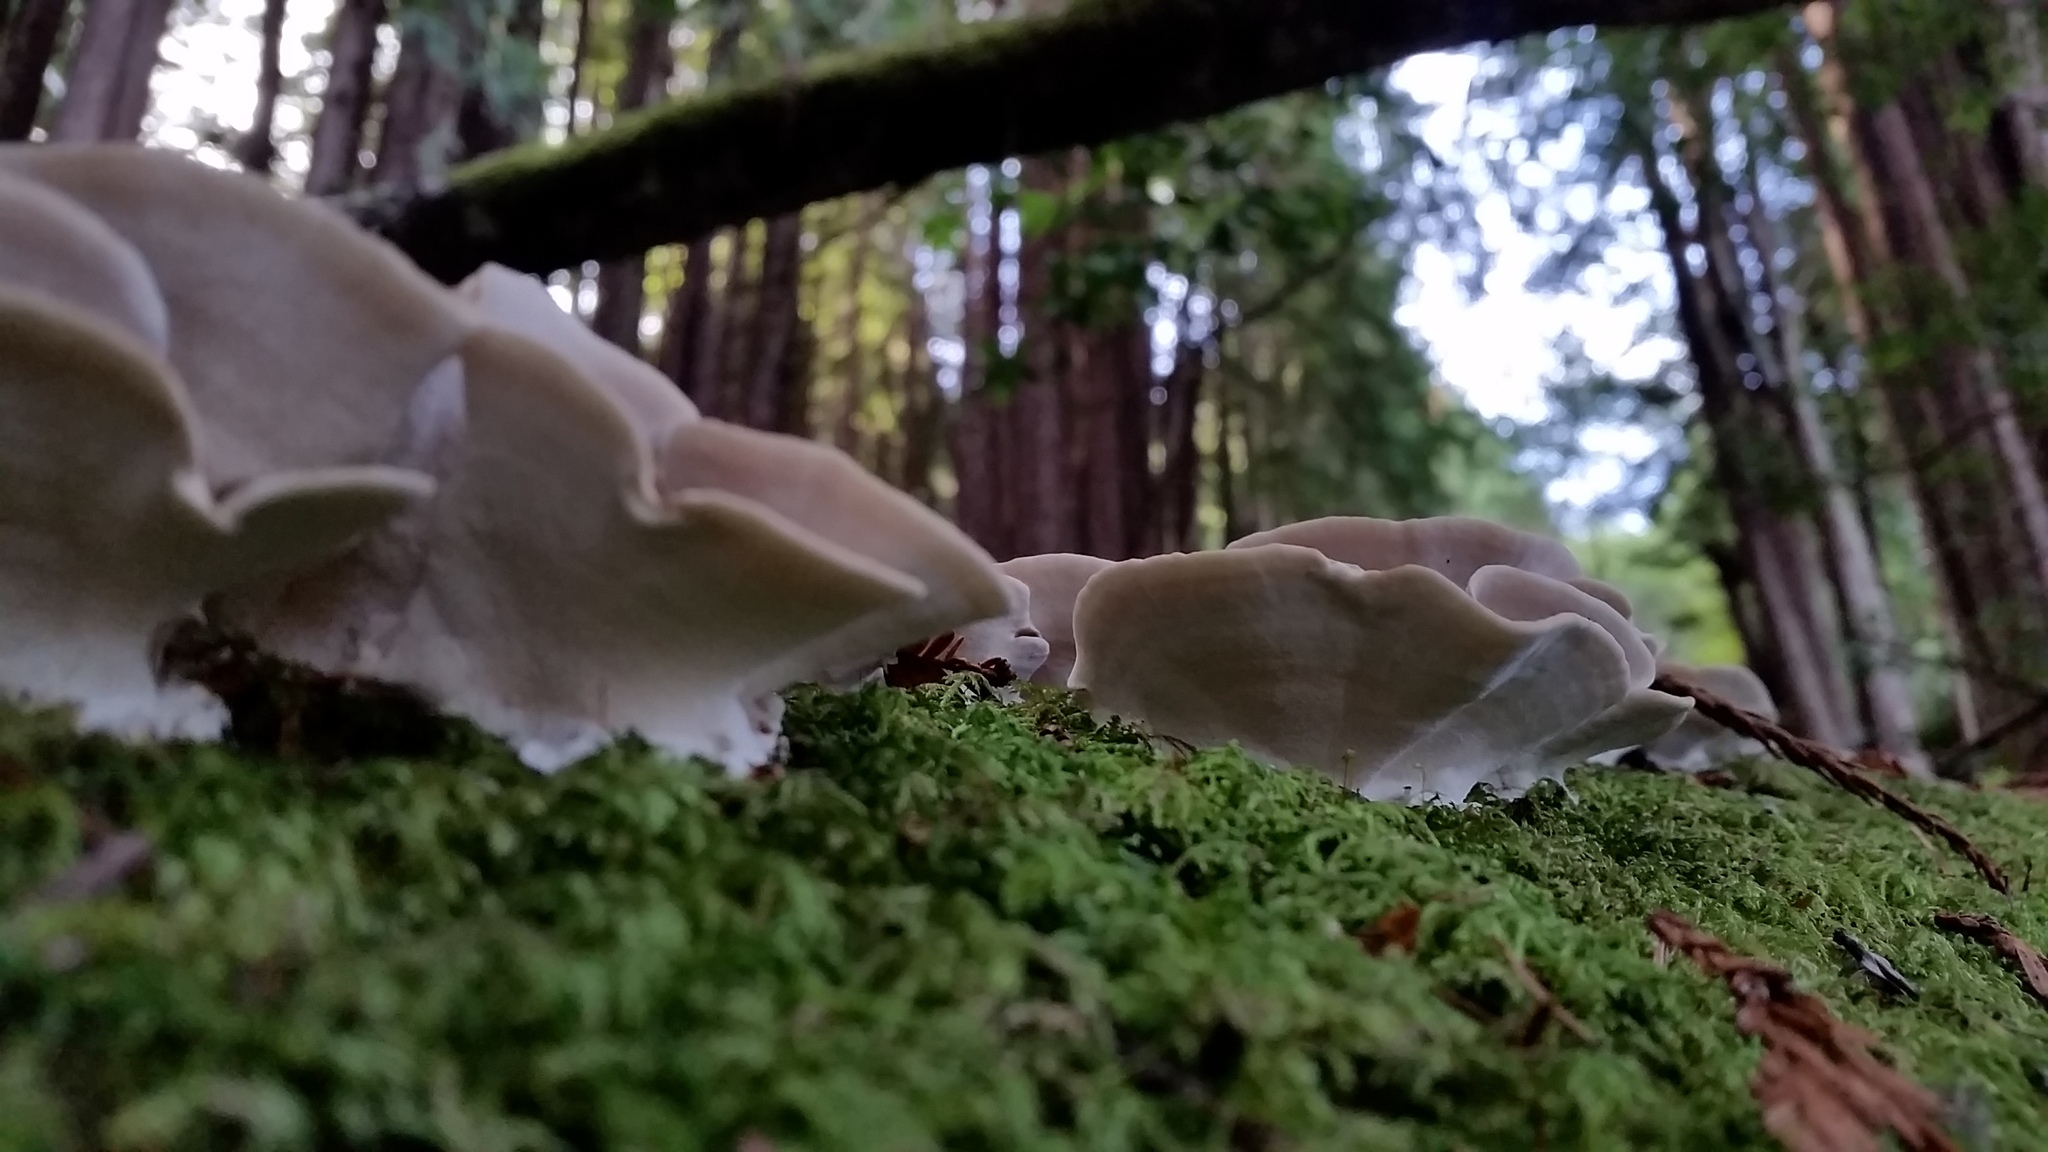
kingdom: Fungi
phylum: Basidiomycota
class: Agaricomycetes
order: Polyporales
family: Polyporaceae
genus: Trametes
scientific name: Trametes versicolor
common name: Turkeytail
